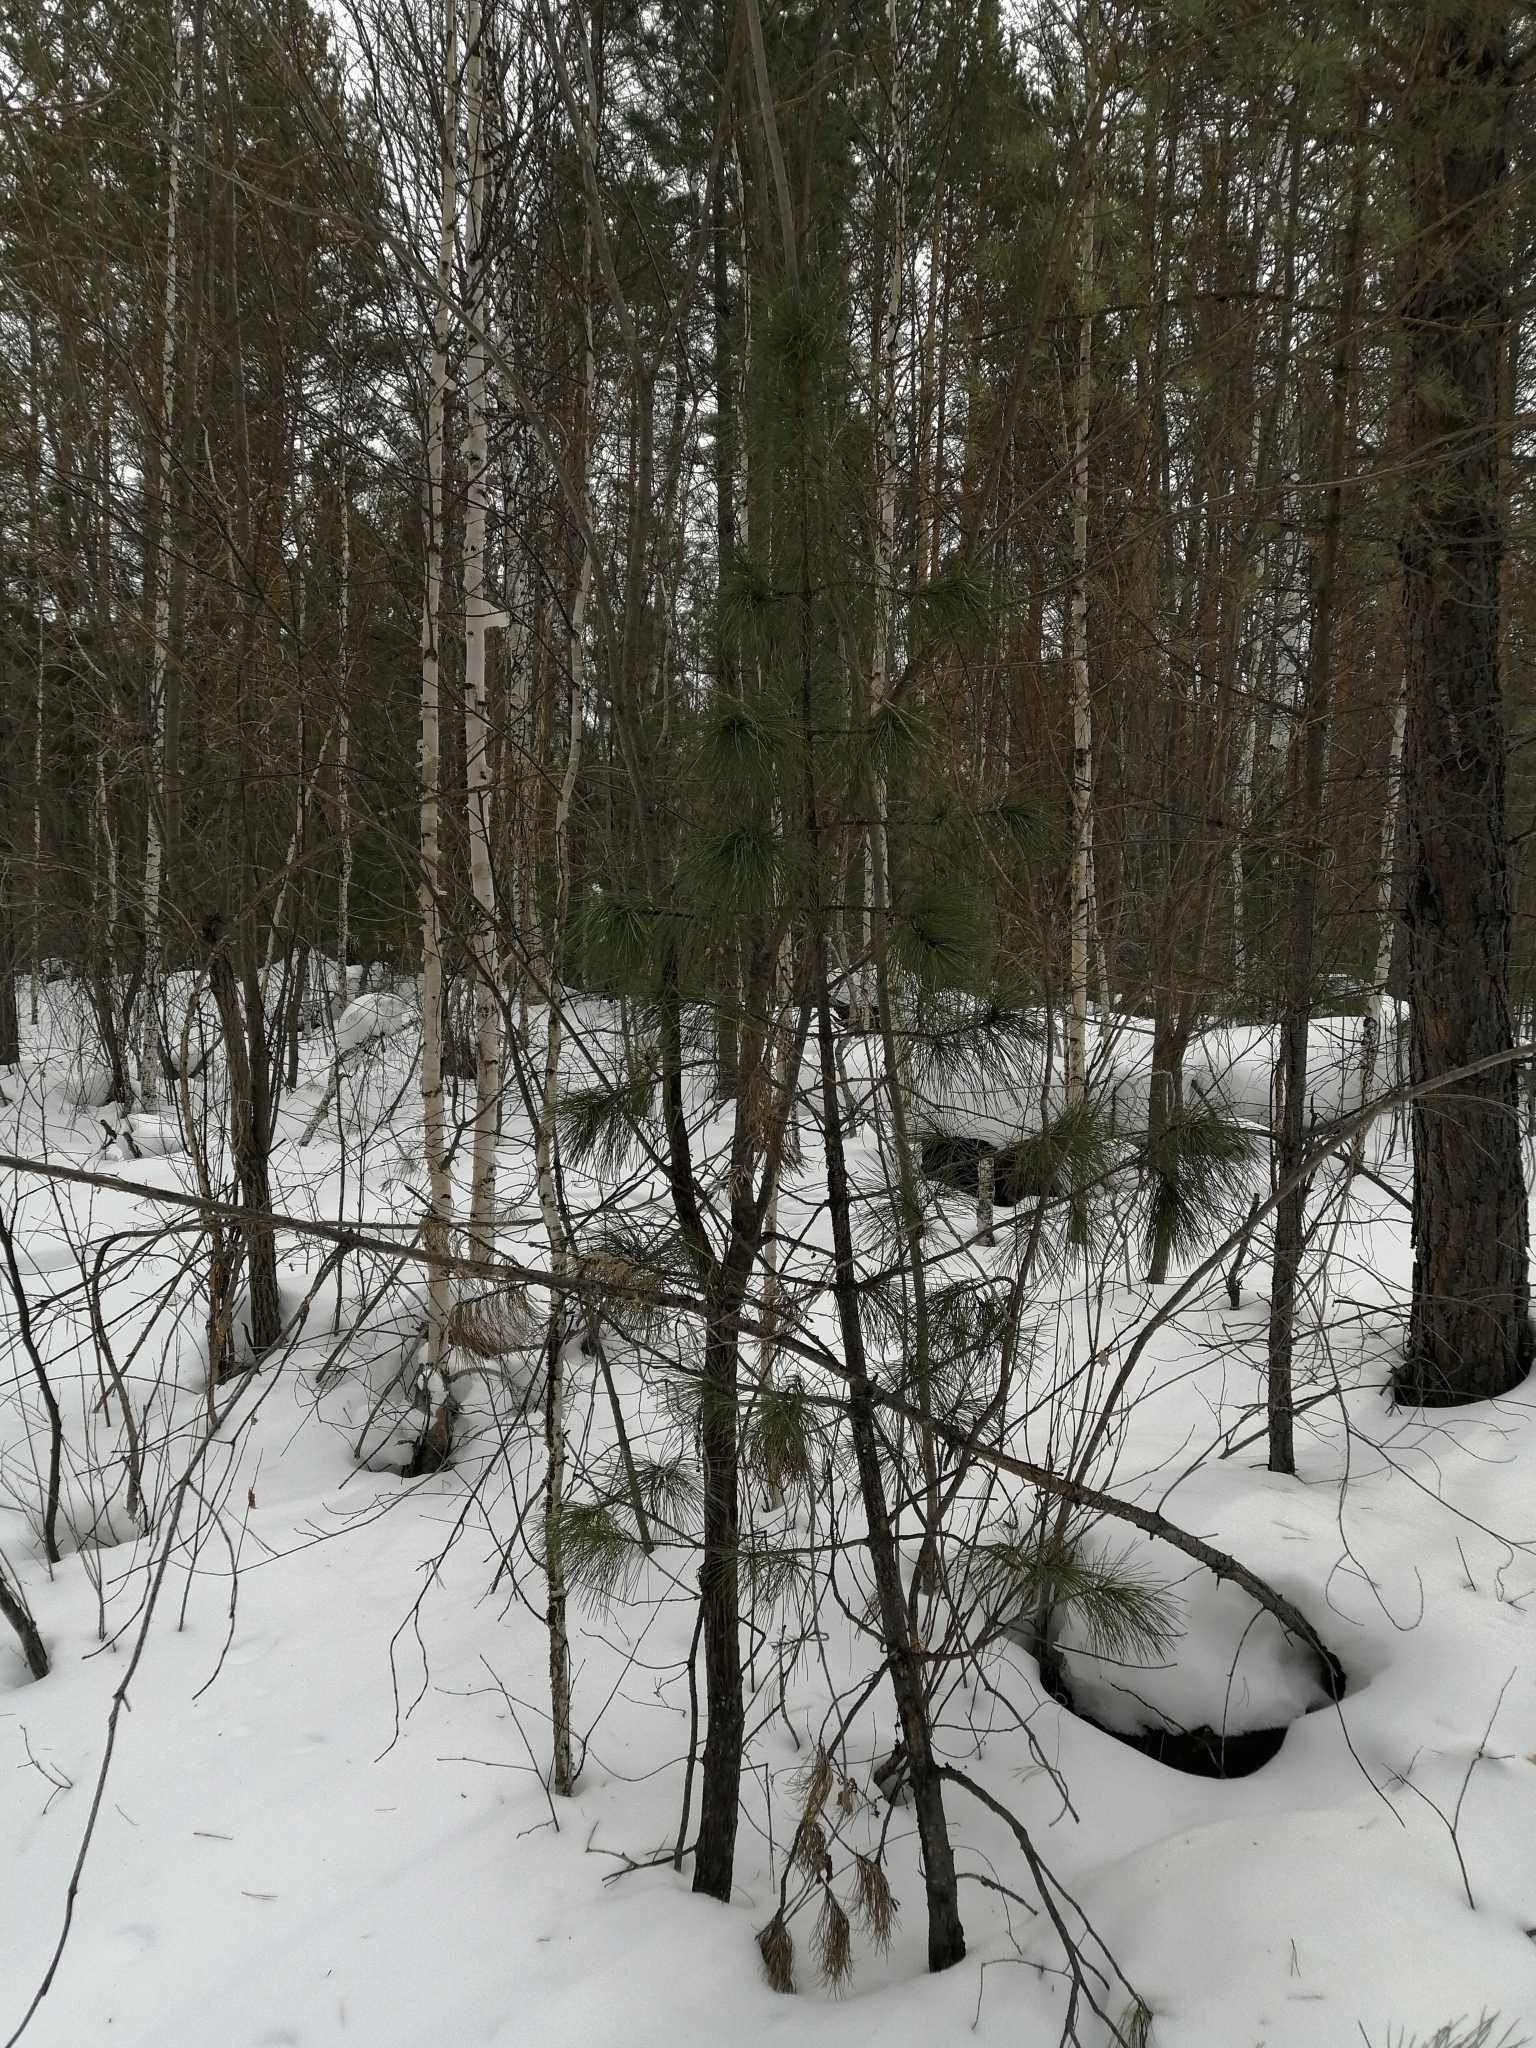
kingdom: Plantae
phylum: Tracheophyta
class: Pinopsida
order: Pinales
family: Pinaceae
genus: Pinus
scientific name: Pinus sibirica
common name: Siberian pine
